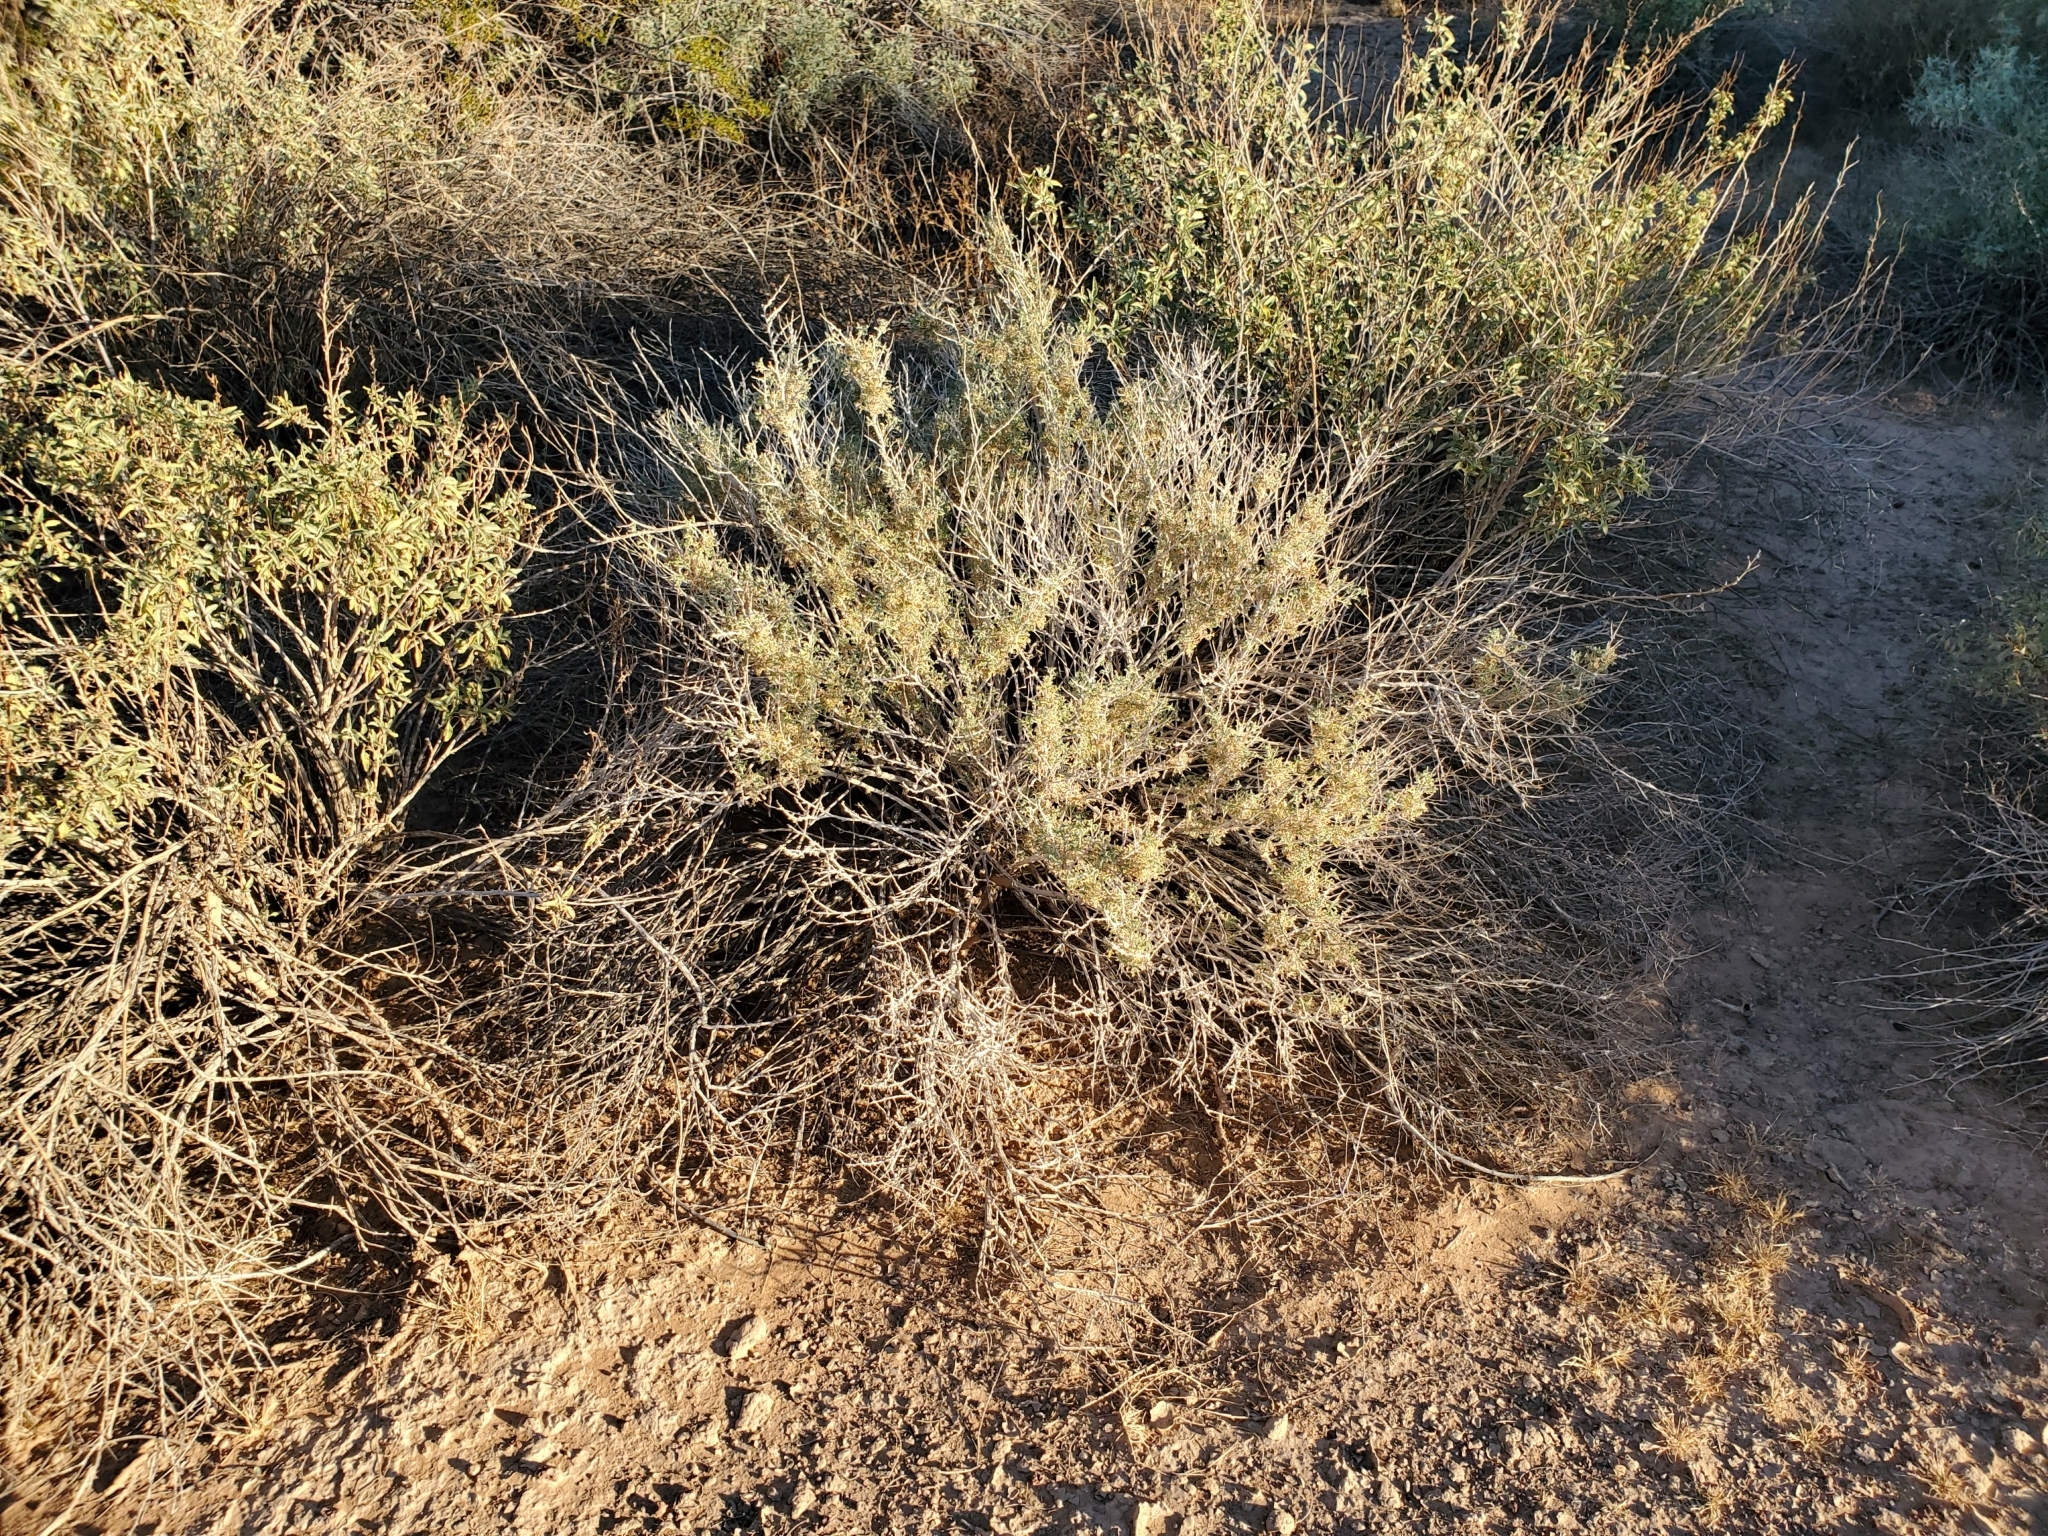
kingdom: Plantae
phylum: Tracheophyta
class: Magnoliopsida
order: Asterales
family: Asteraceae
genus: Ambrosia
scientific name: Ambrosia dumosa
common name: Bur-sage
